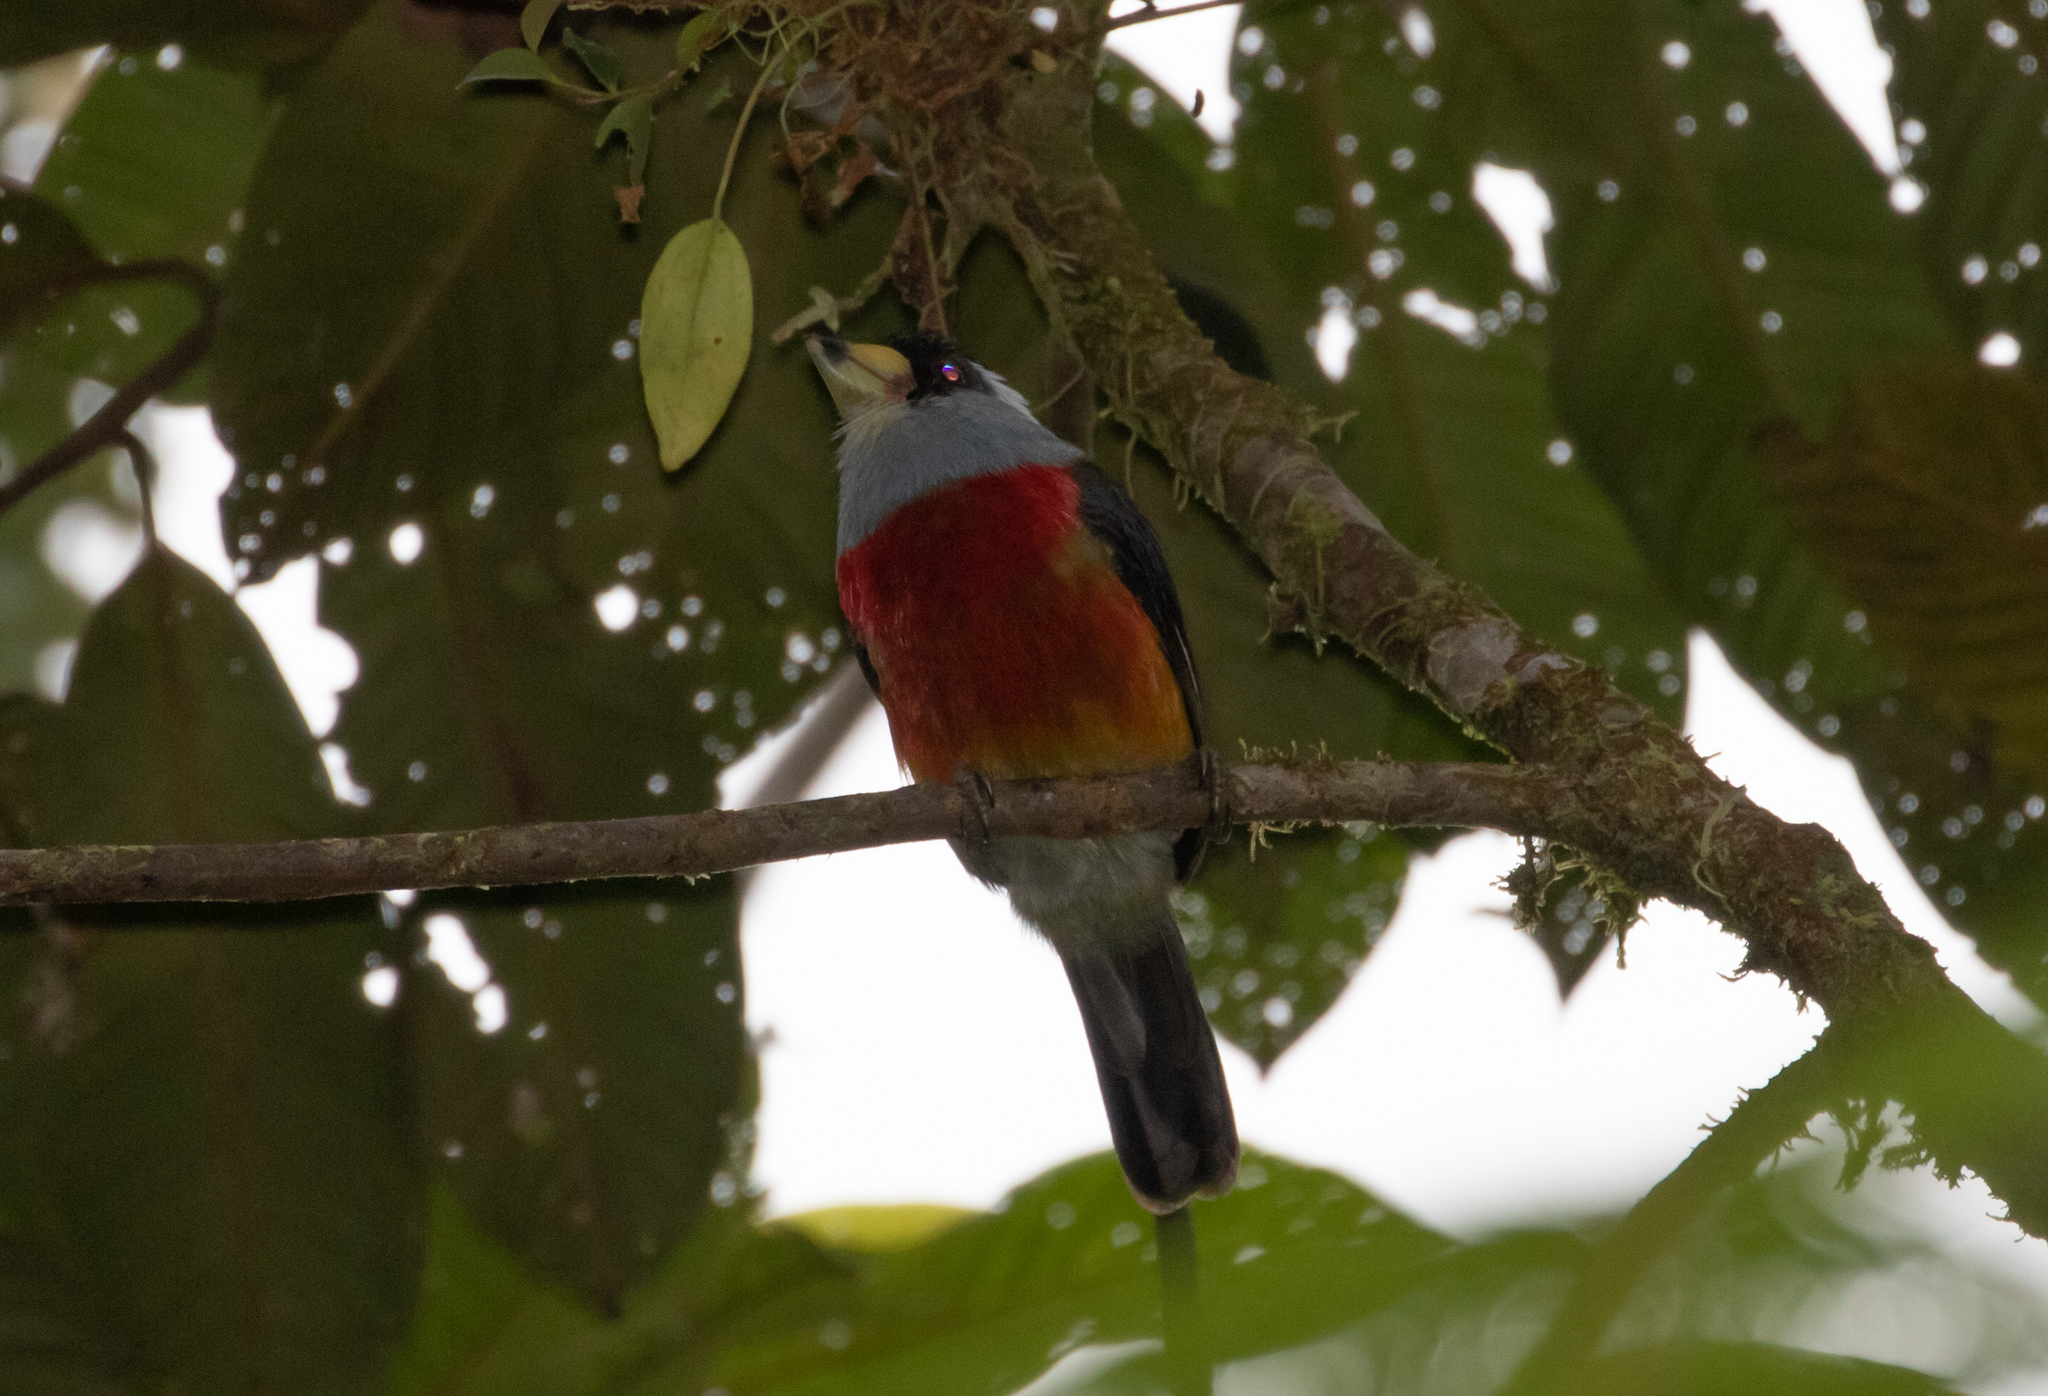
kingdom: Animalia
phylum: Chordata
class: Aves
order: Piciformes
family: Semnornithidae
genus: Semnornis
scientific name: Semnornis ramphastinus
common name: Toucan barbet
